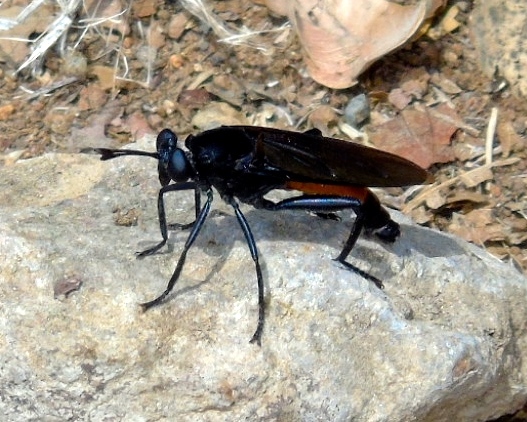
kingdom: Animalia
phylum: Arthropoda
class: Insecta
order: Diptera
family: Mydidae
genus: Mydas
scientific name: Mydas
